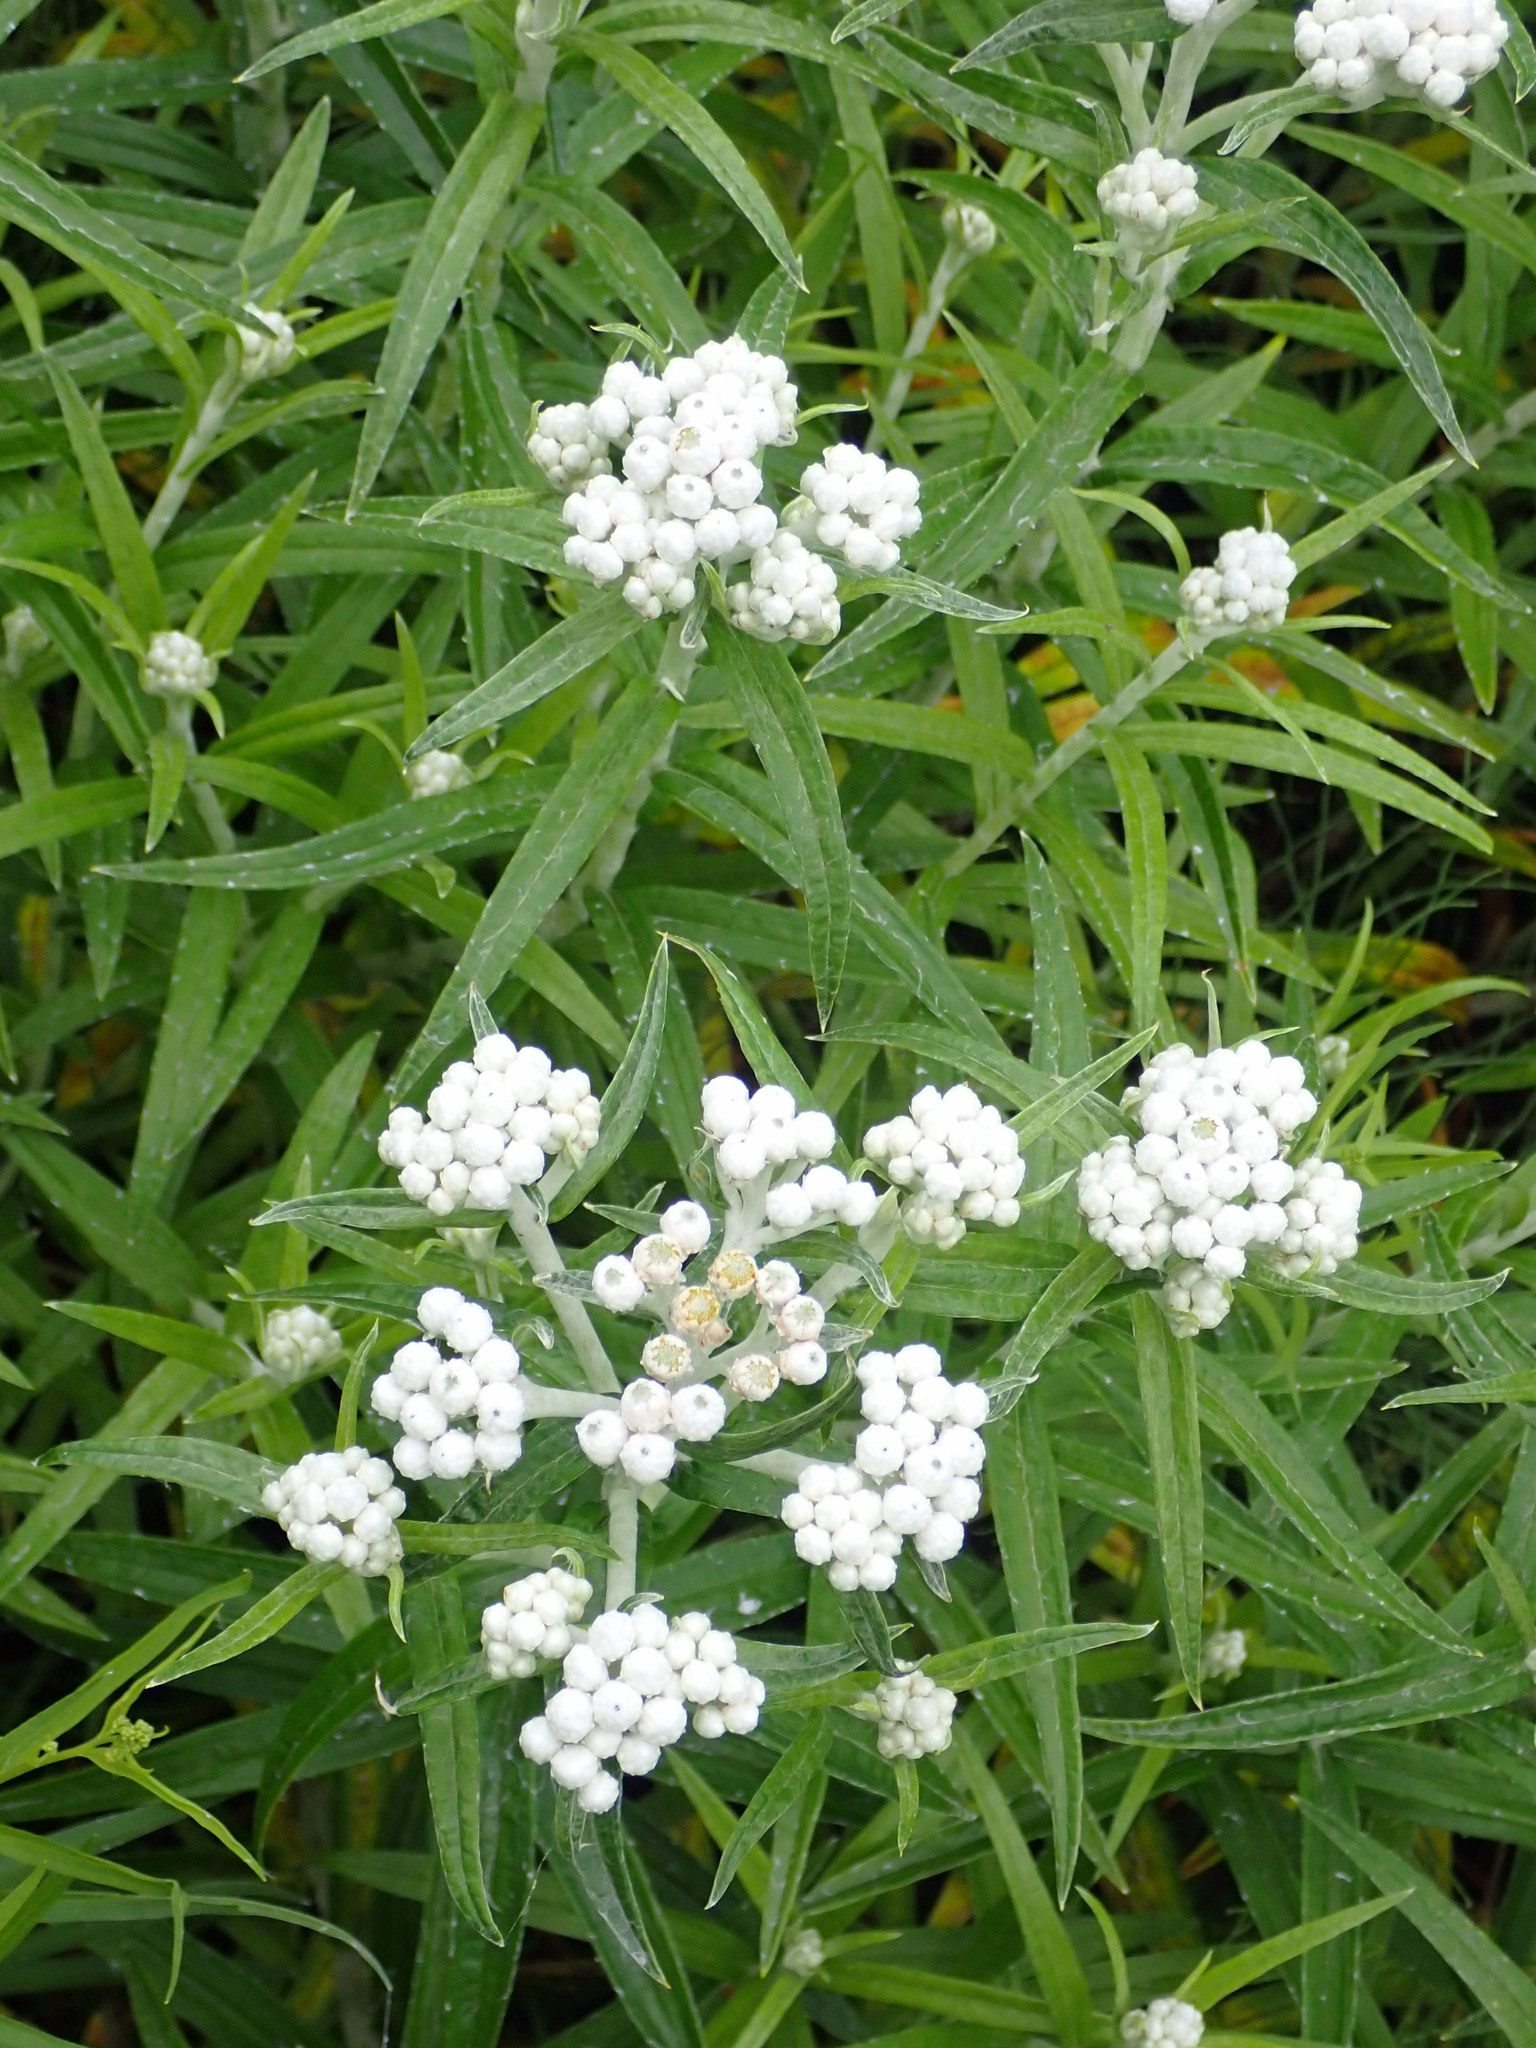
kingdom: Plantae
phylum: Tracheophyta
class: Magnoliopsida
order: Asterales
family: Asteraceae
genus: Anaphalis
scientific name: Anaphalis margaritacea
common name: Pearly everlasting
